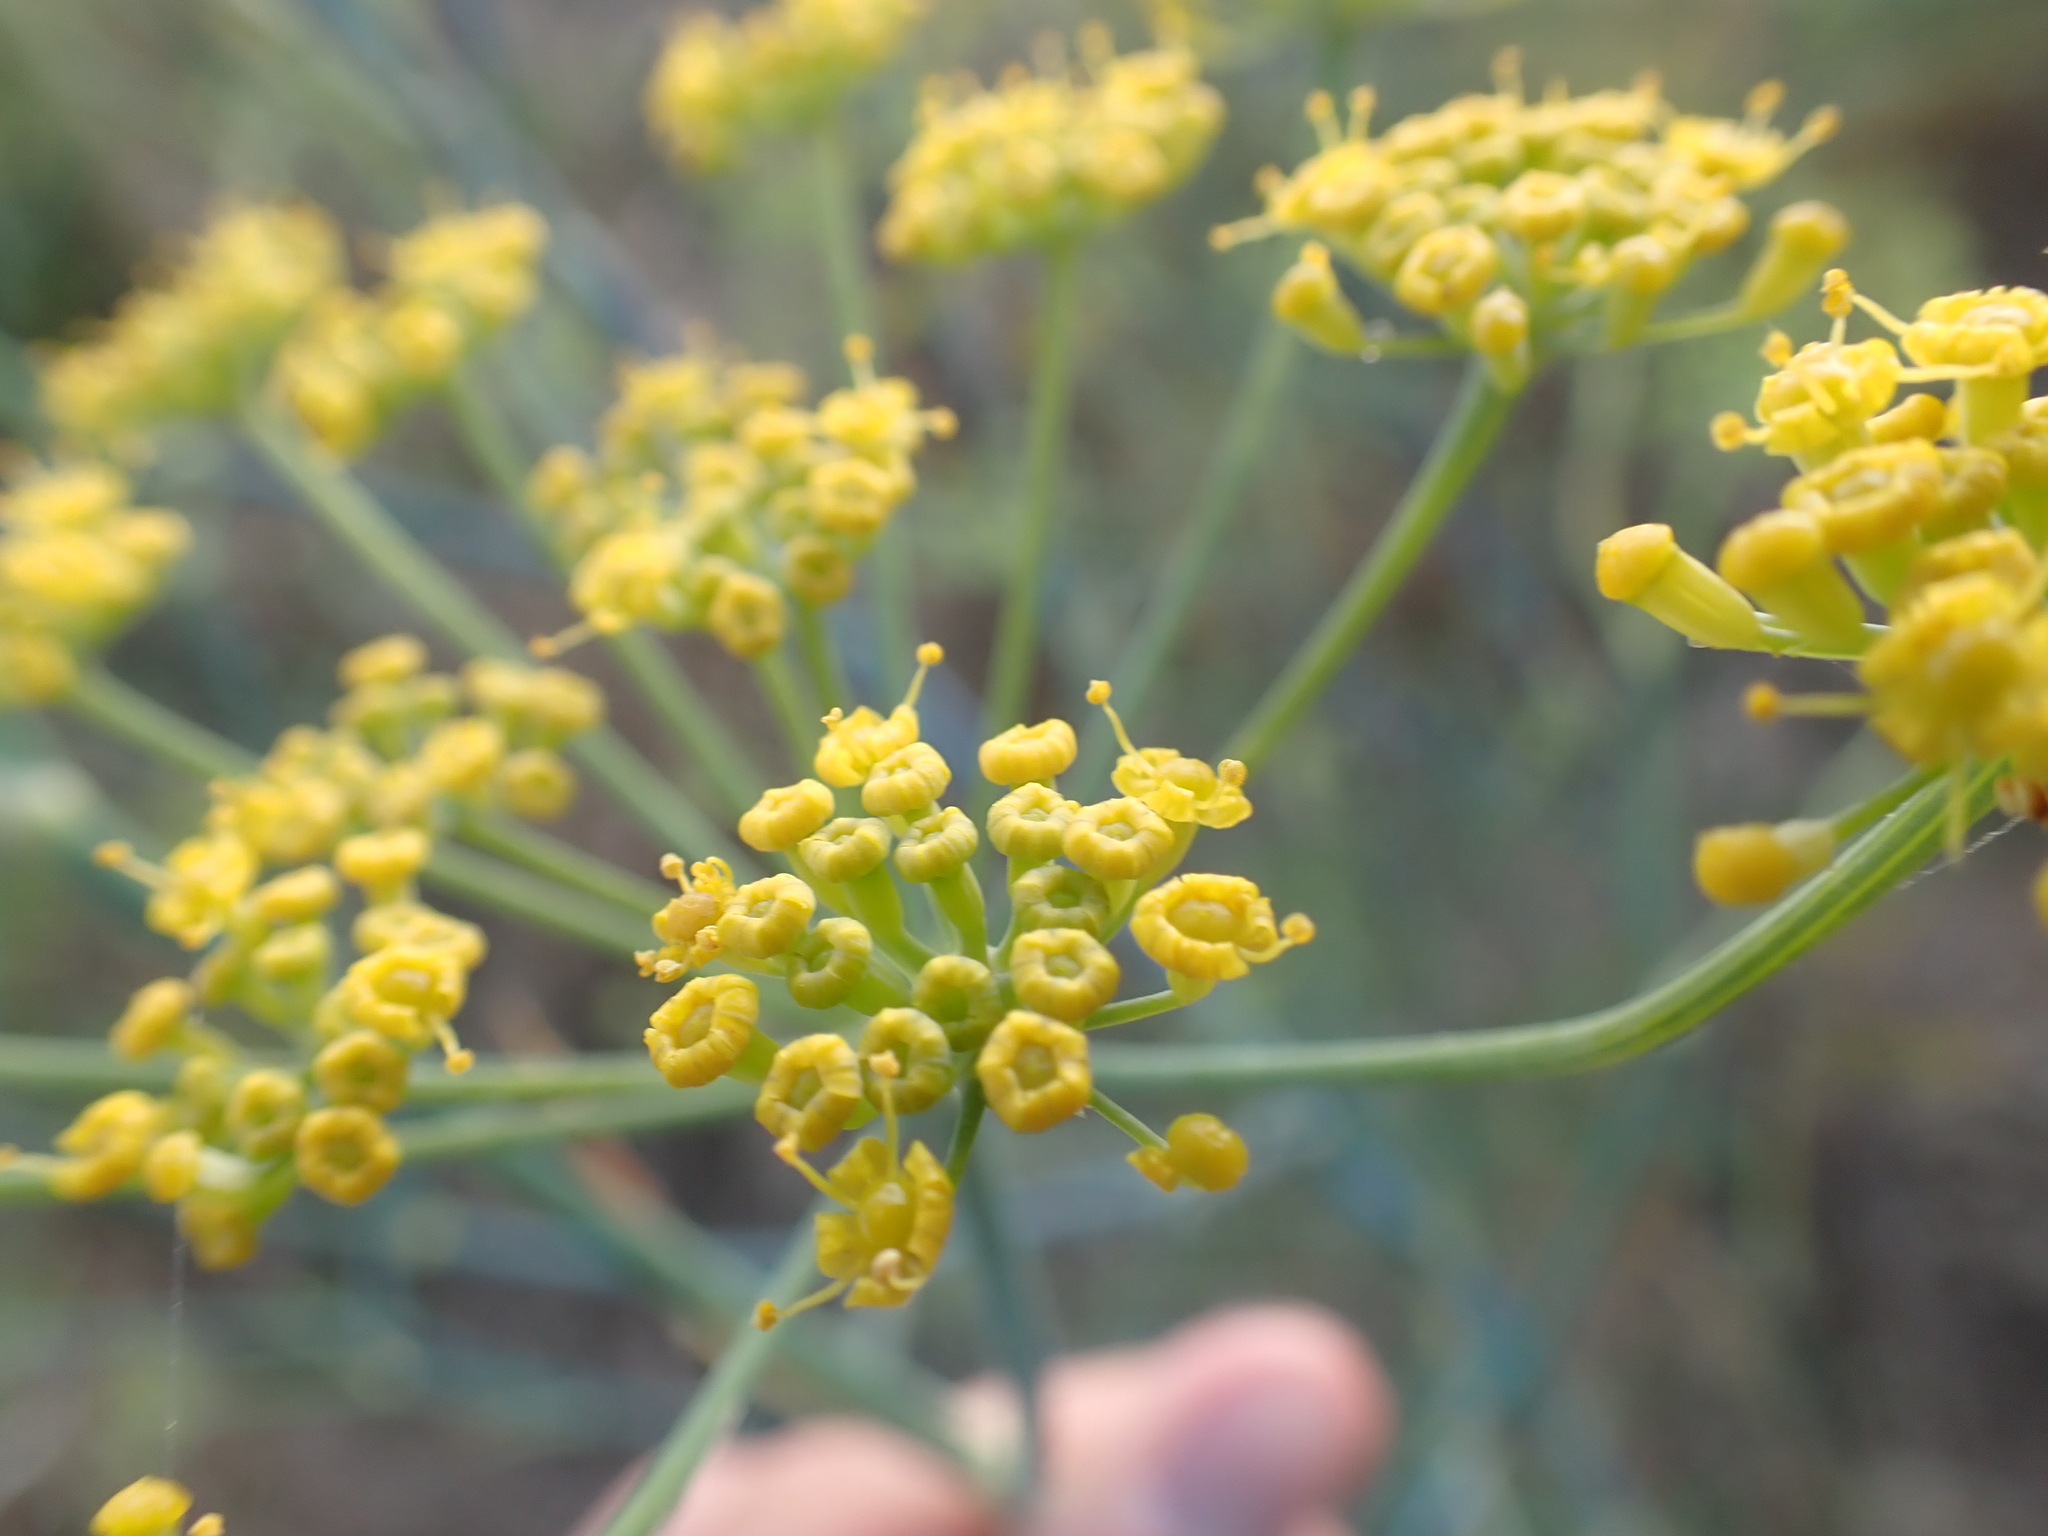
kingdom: Plantae
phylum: Tracheophyta
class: Magnoliopsida
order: Apiales
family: Apiaceae
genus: Foeniculum
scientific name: Foeniculum vulgare
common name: Fennel
